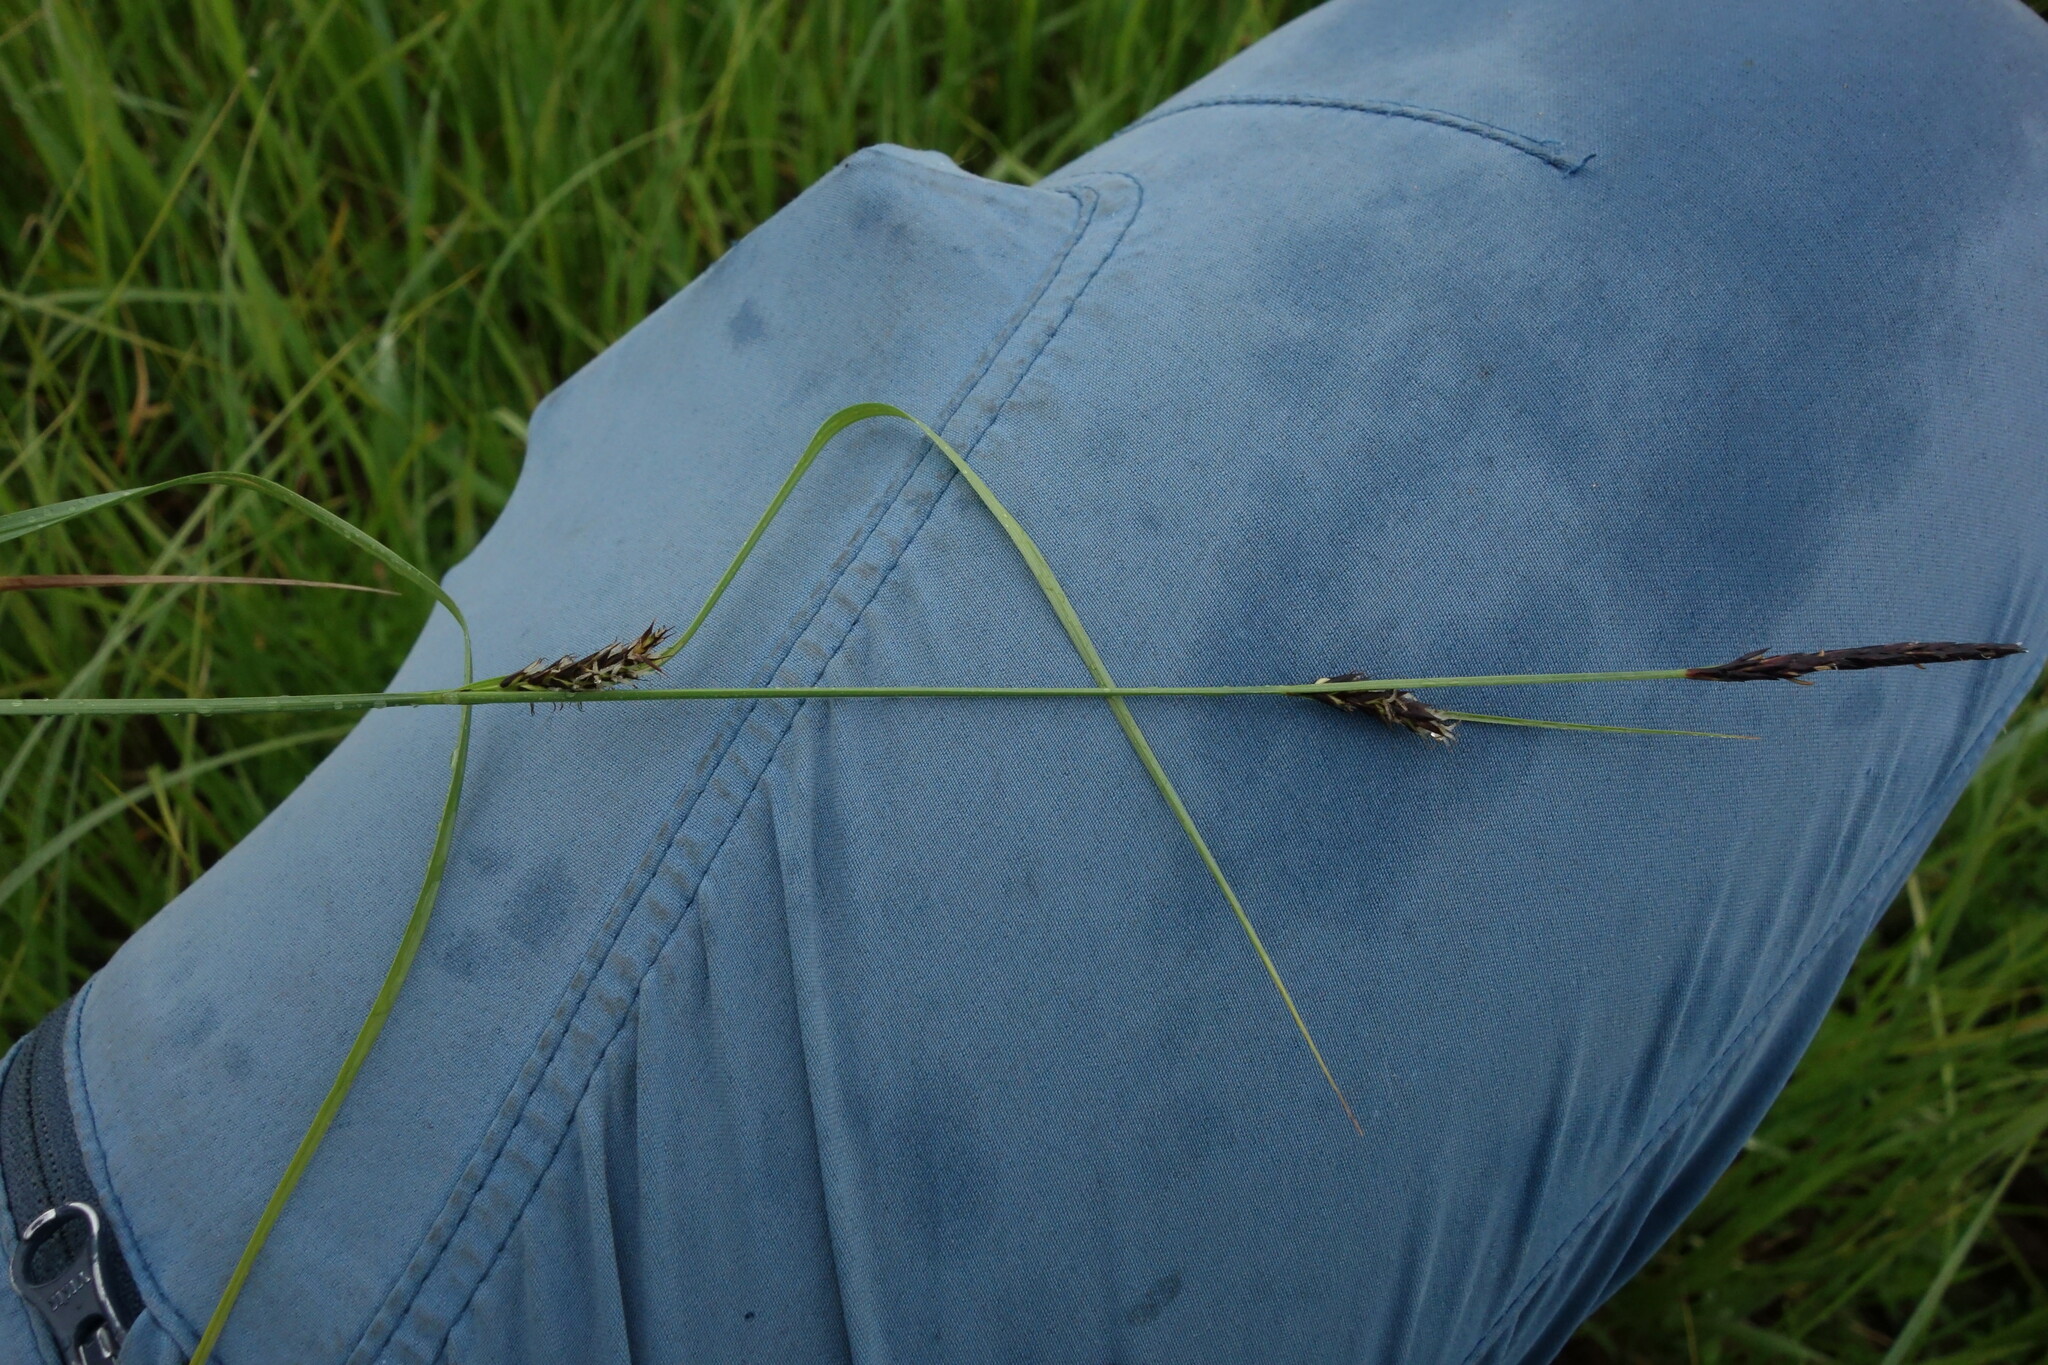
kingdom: Plantae
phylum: Tracheophyta
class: Liliopsida
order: Poales
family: Cyperaceae
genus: Carex
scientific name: Carex melanostachya
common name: Black-spiked sedge
